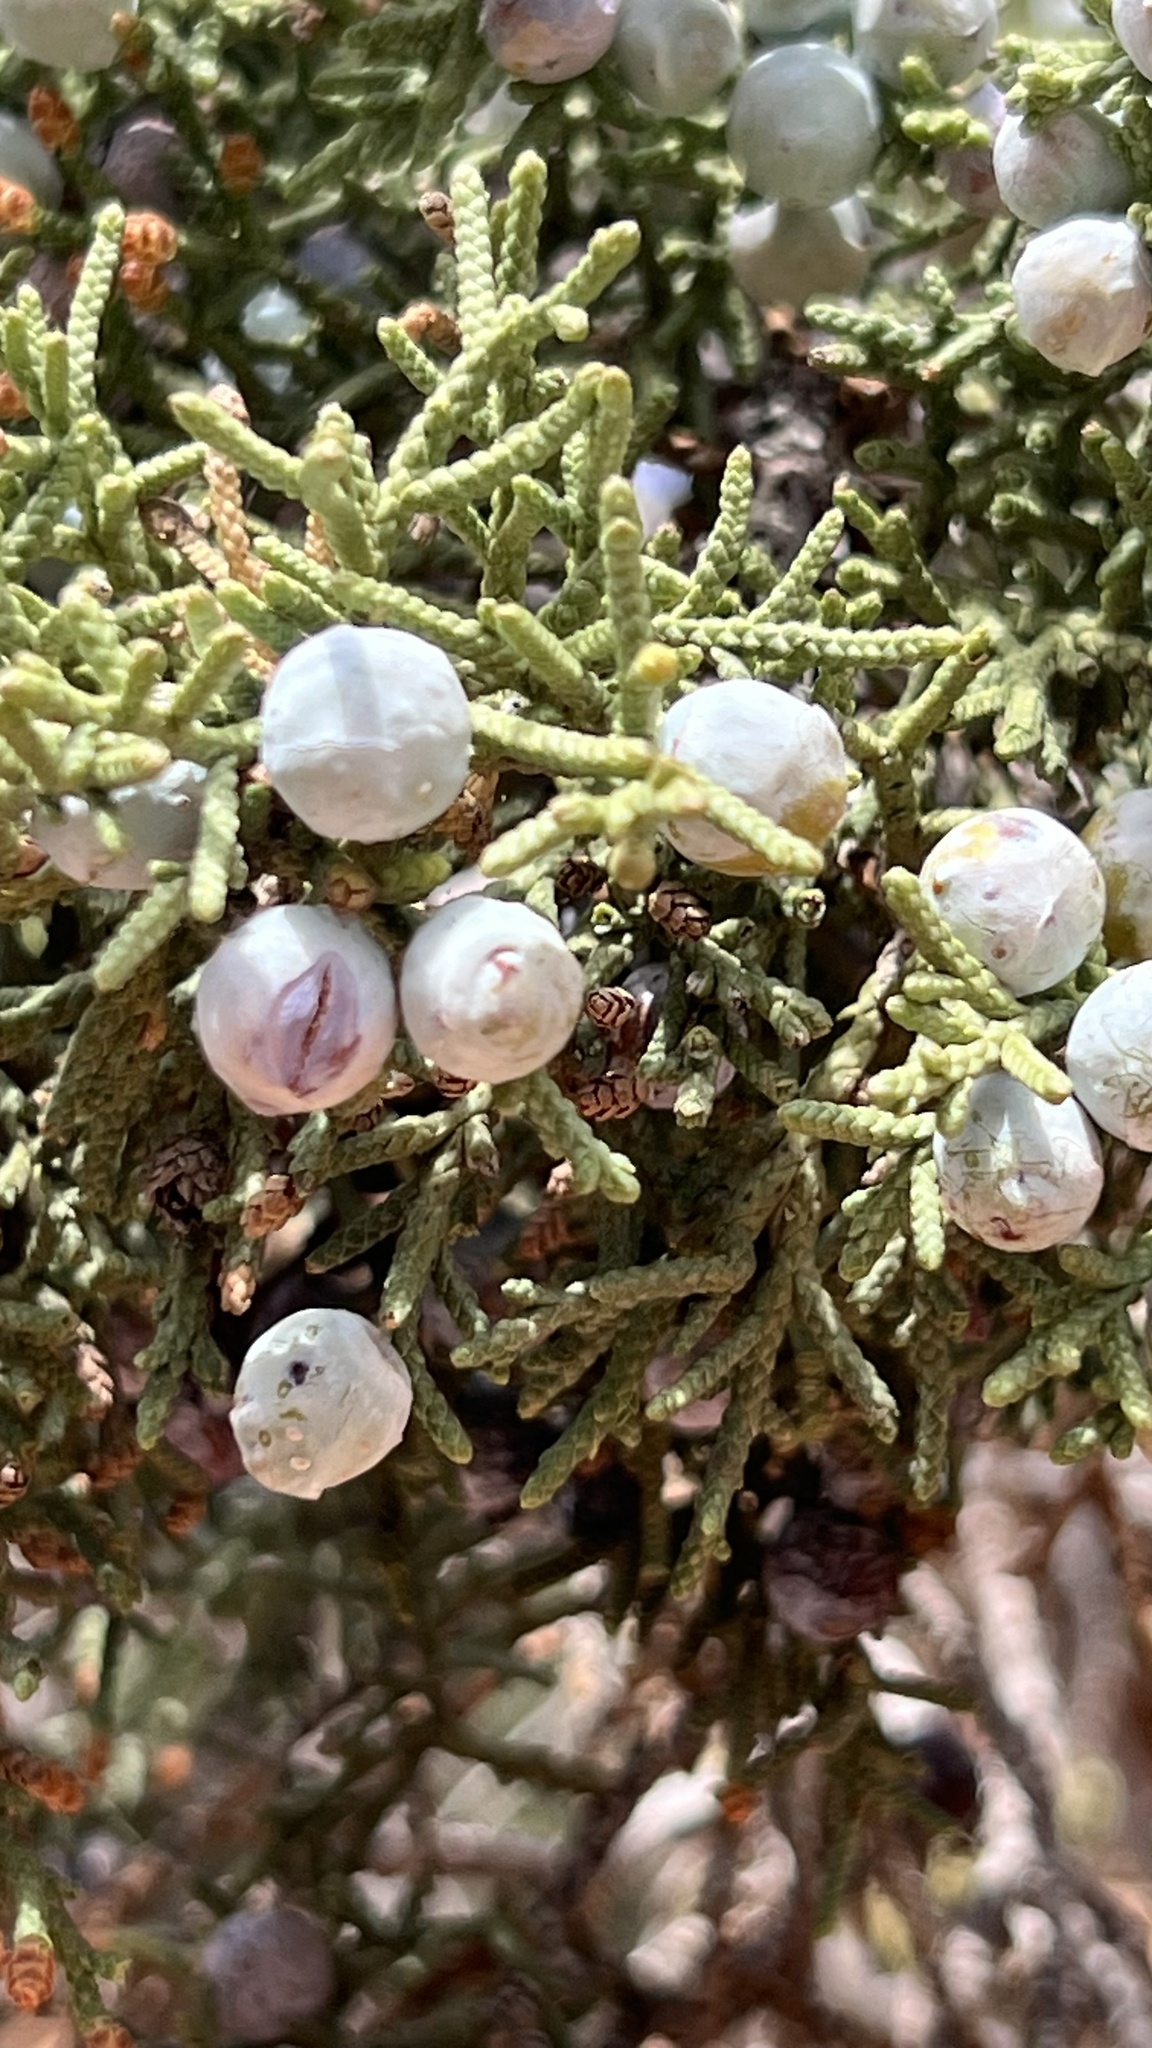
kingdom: Plantae
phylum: Tracheophyta
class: Pinopsida
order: Pinales
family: Cupressaceae
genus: Juniperus
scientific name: Juniperus osteosperma
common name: Utah juniper
